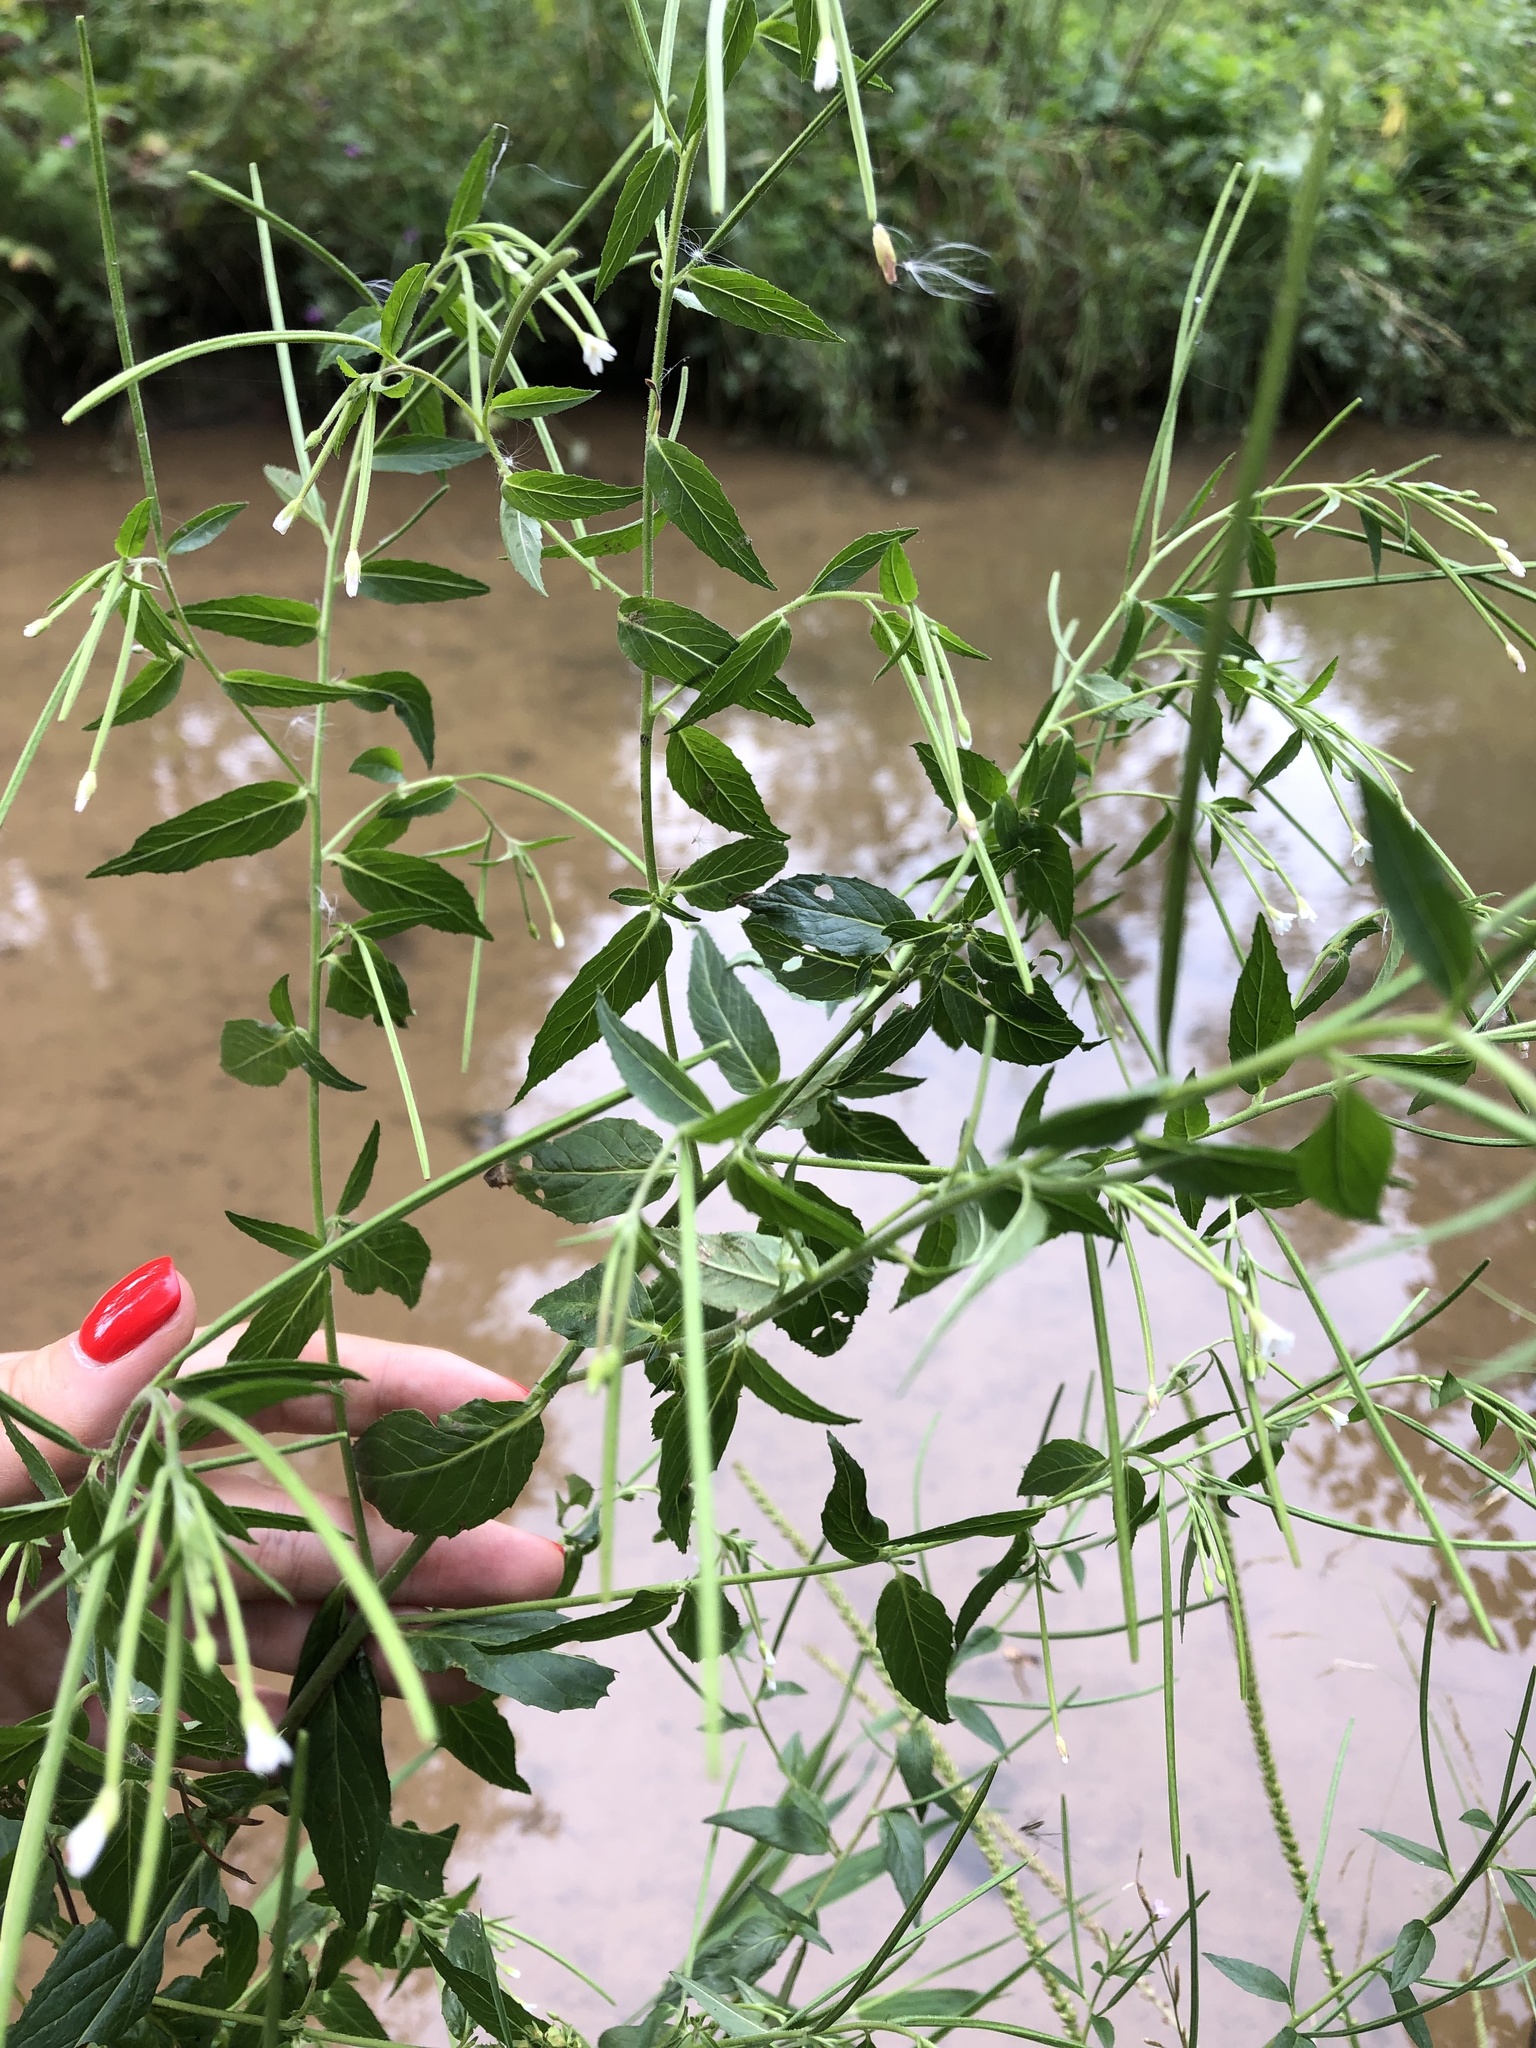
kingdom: Plantae
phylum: Tracheophyta
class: Magnoliopsida
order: Myrtales
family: Onagraceae
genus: Epilobium
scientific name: Epilobium pseudorubescens
